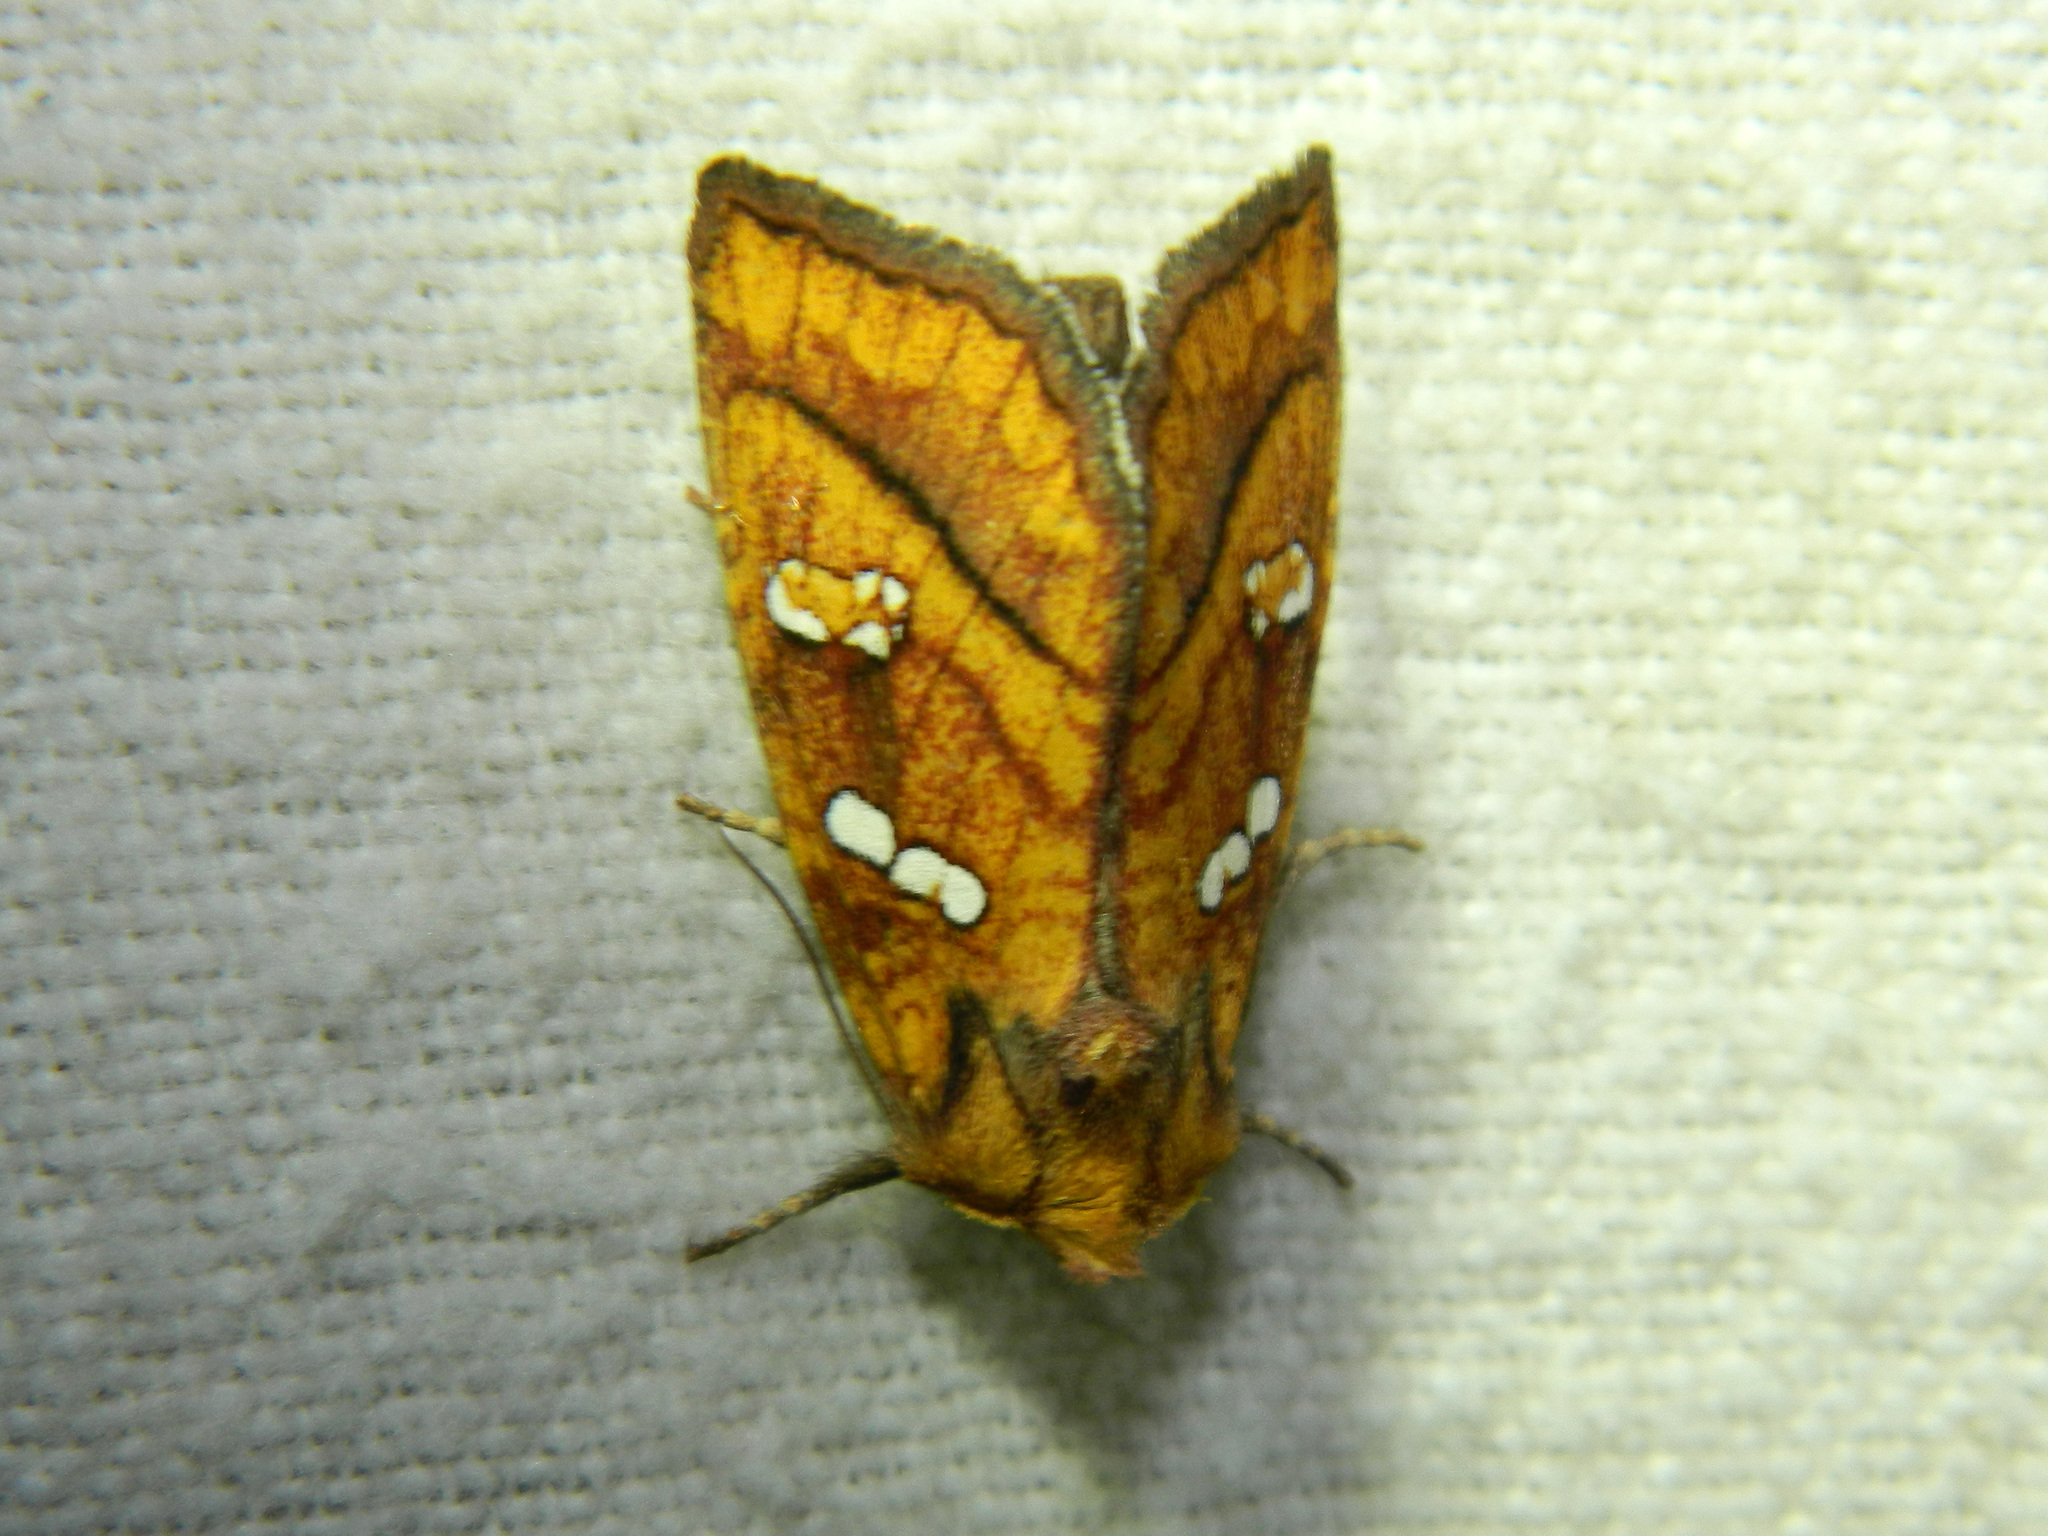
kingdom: Animalia
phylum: Arthropoda
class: Insecta
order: Lepidoptera
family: Noctuidae
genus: Papaipema
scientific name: Papaipema pterisii
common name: Bracken borer moth
